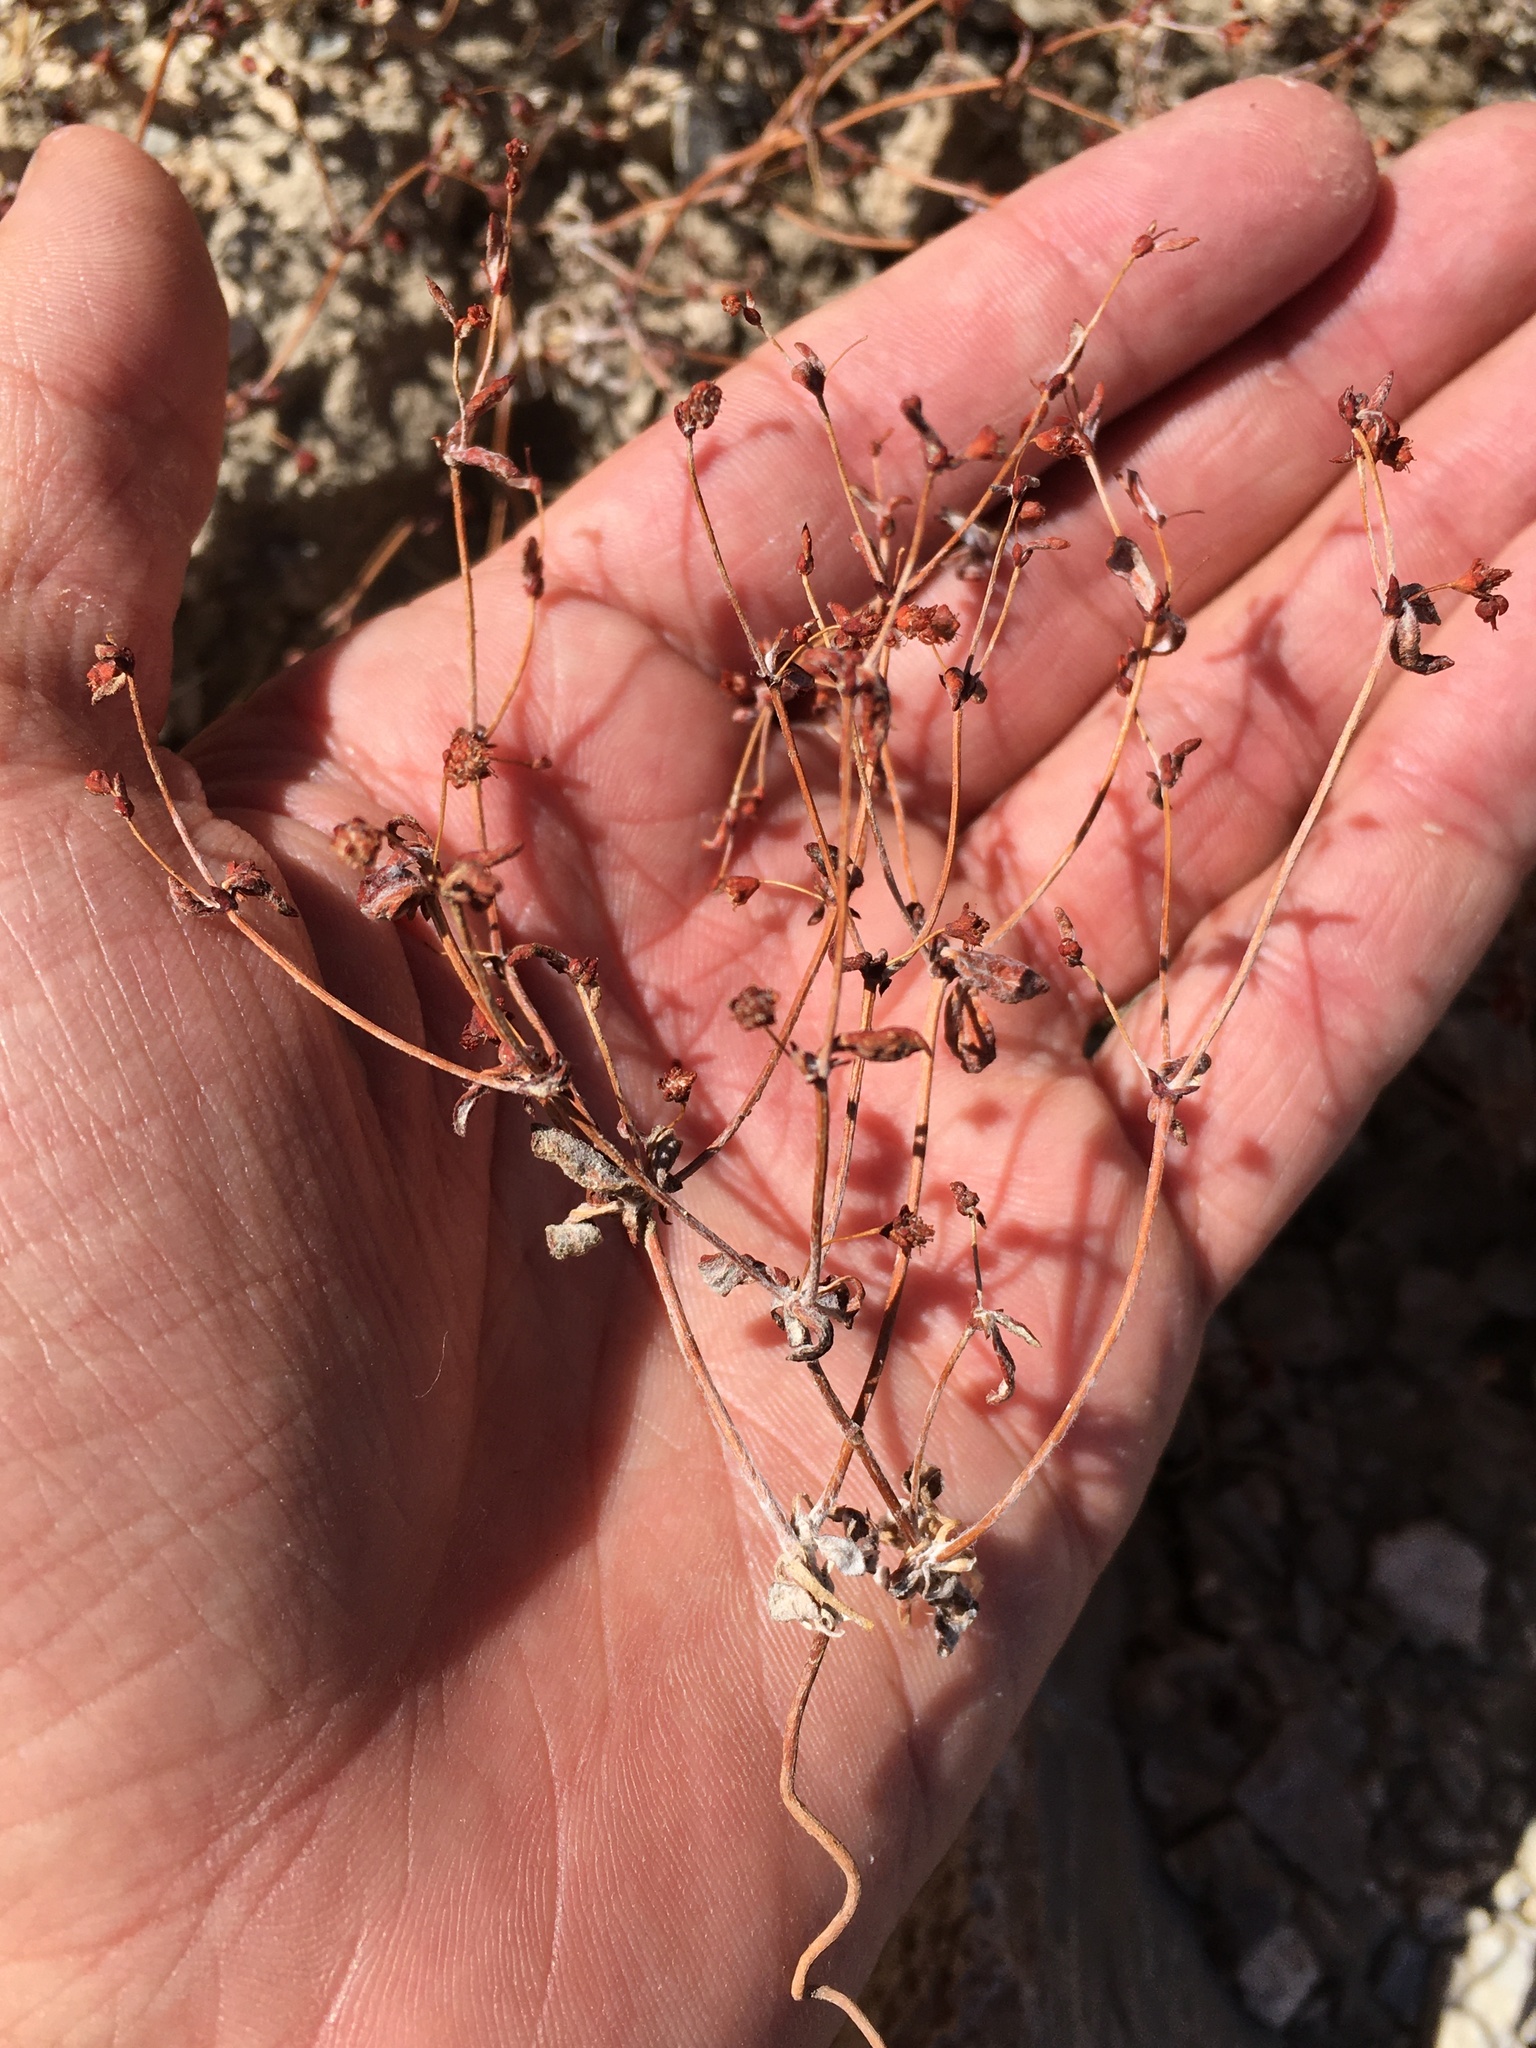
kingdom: Plantae
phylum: Tracheophyta
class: Magnoliopsida
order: Caryophyllales
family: Polygonaceae
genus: Eriogonum
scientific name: Eriogonum maculatum
